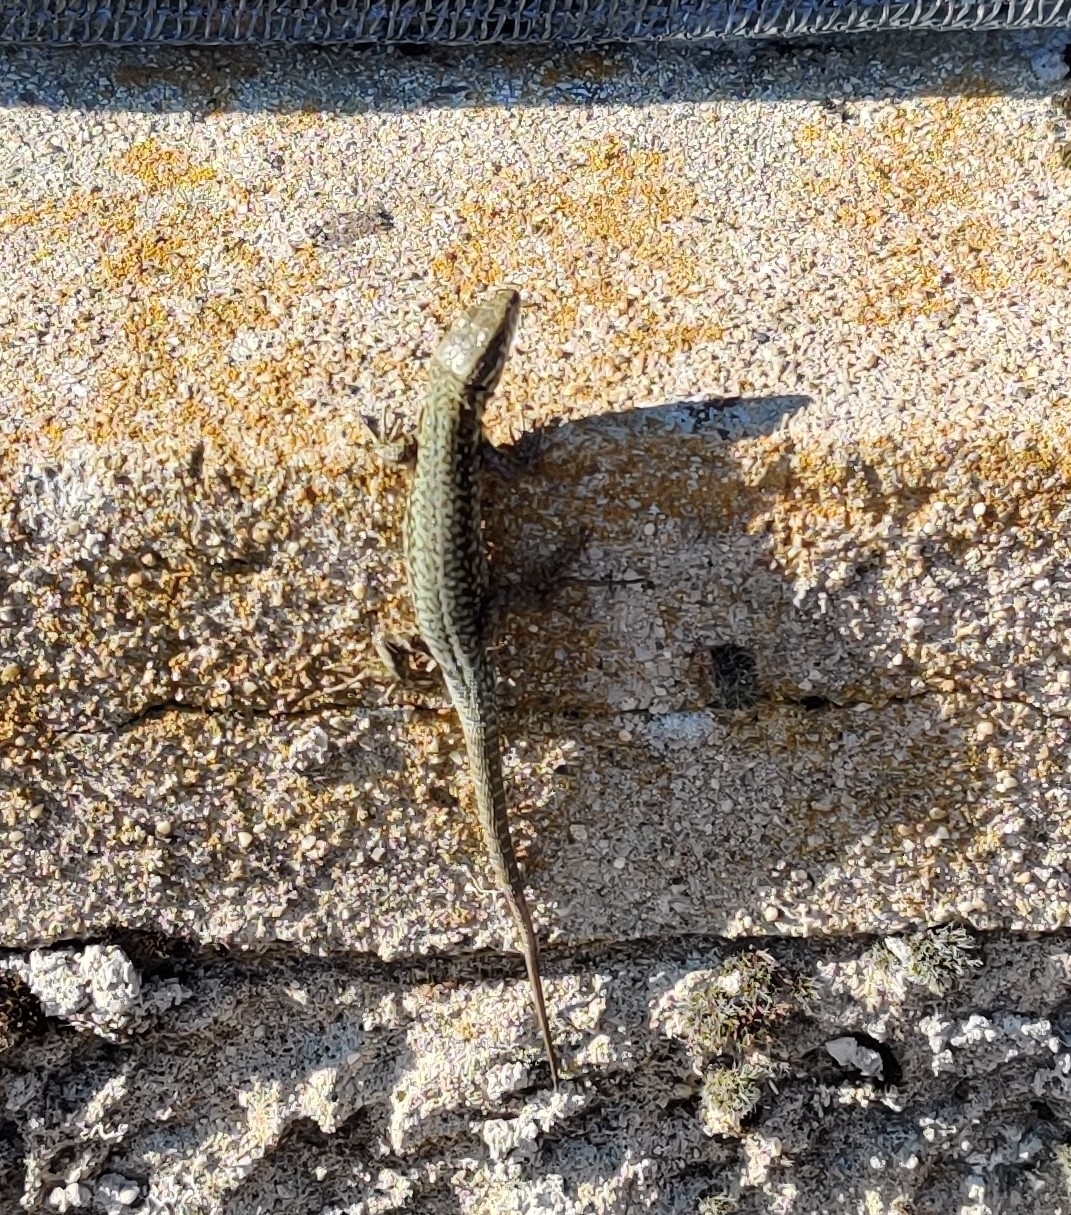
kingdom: Animalia
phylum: Chordata
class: Squamata
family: Lacertidae
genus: Podarcis
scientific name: Podarcis muralis
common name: Common wall lizard
